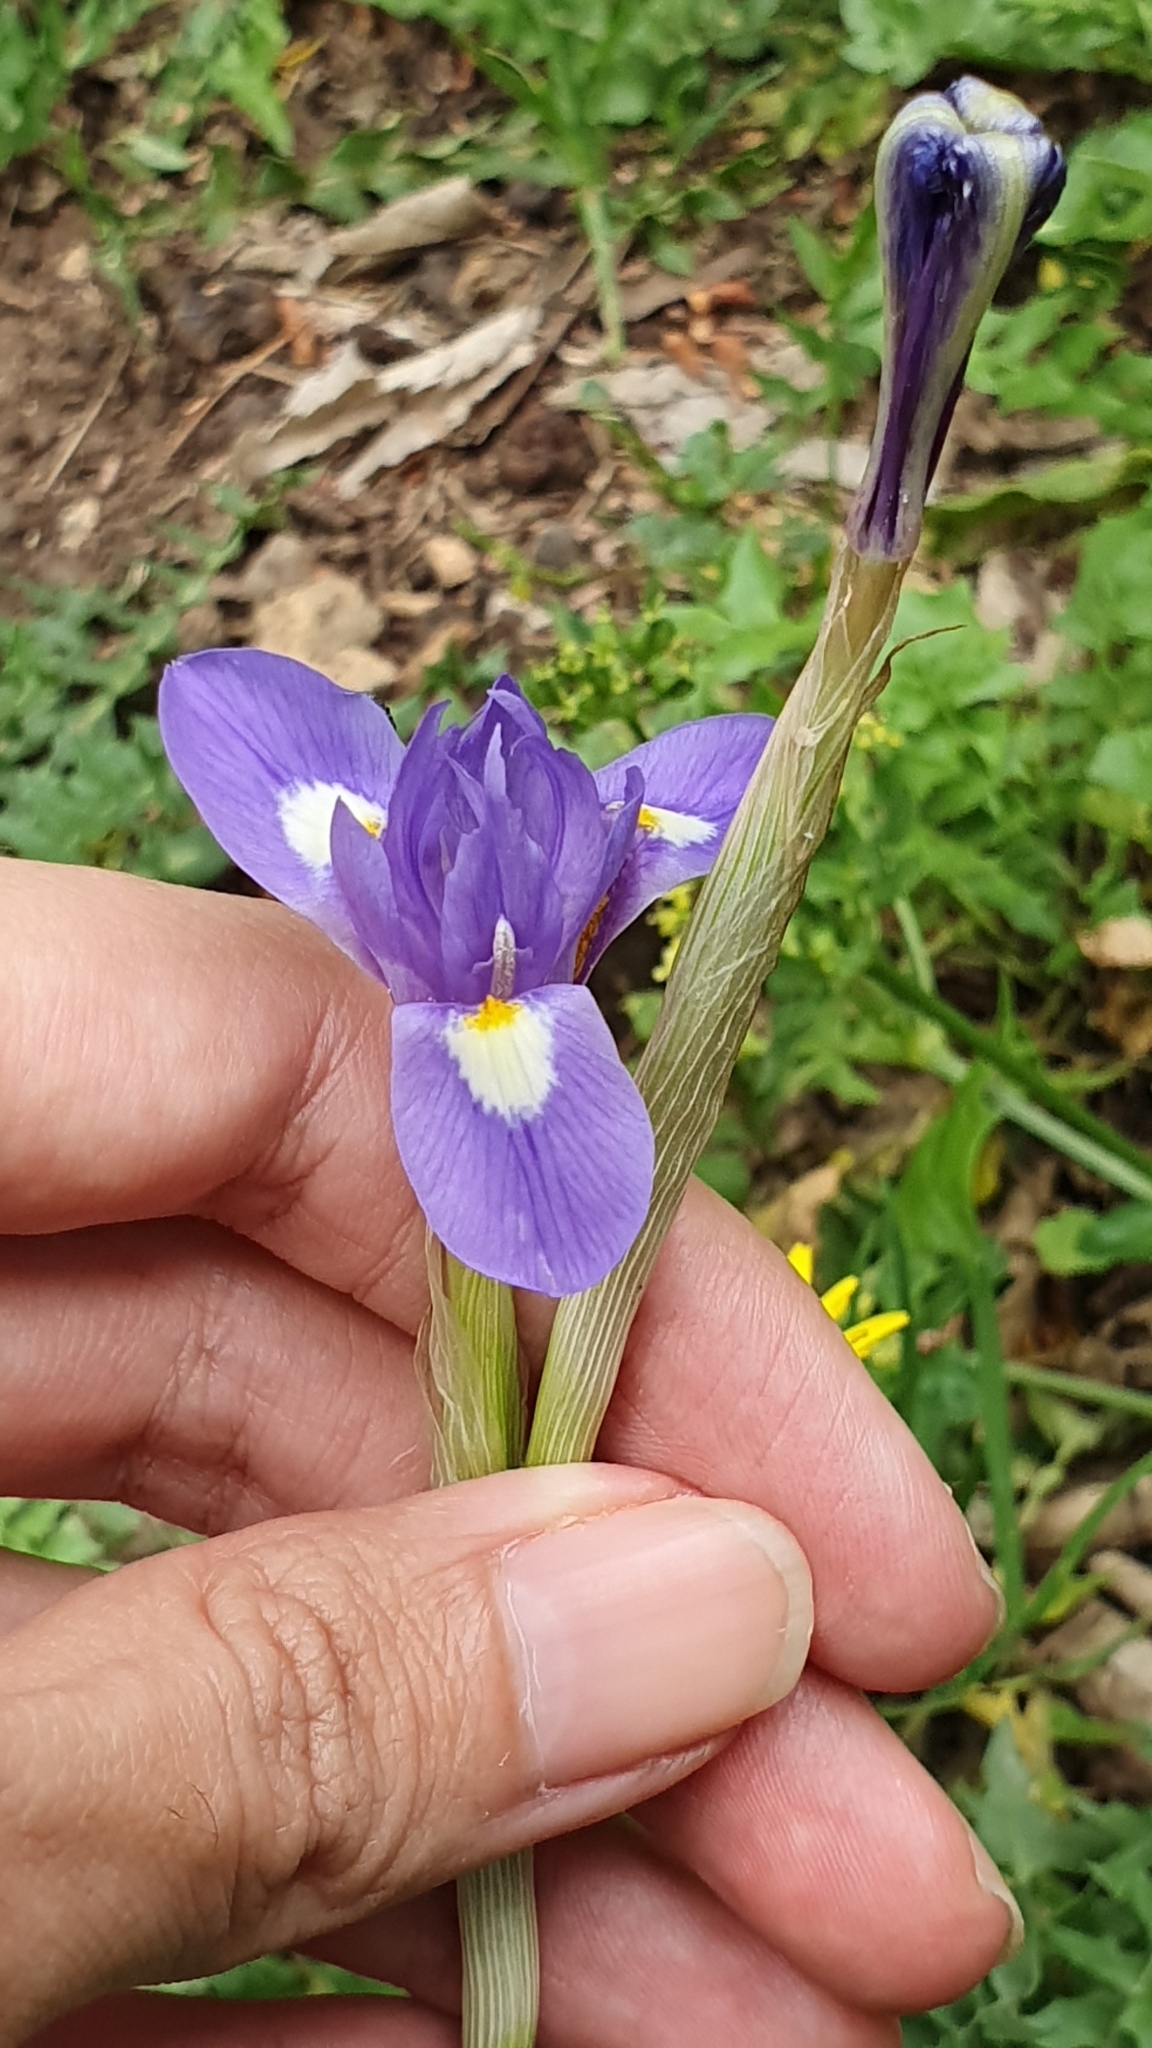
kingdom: Plantae
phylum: Tracheophyta
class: Liliopsida
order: Asparagales
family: Iridaceae
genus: Moraea
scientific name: Moraea sisyrinchium
